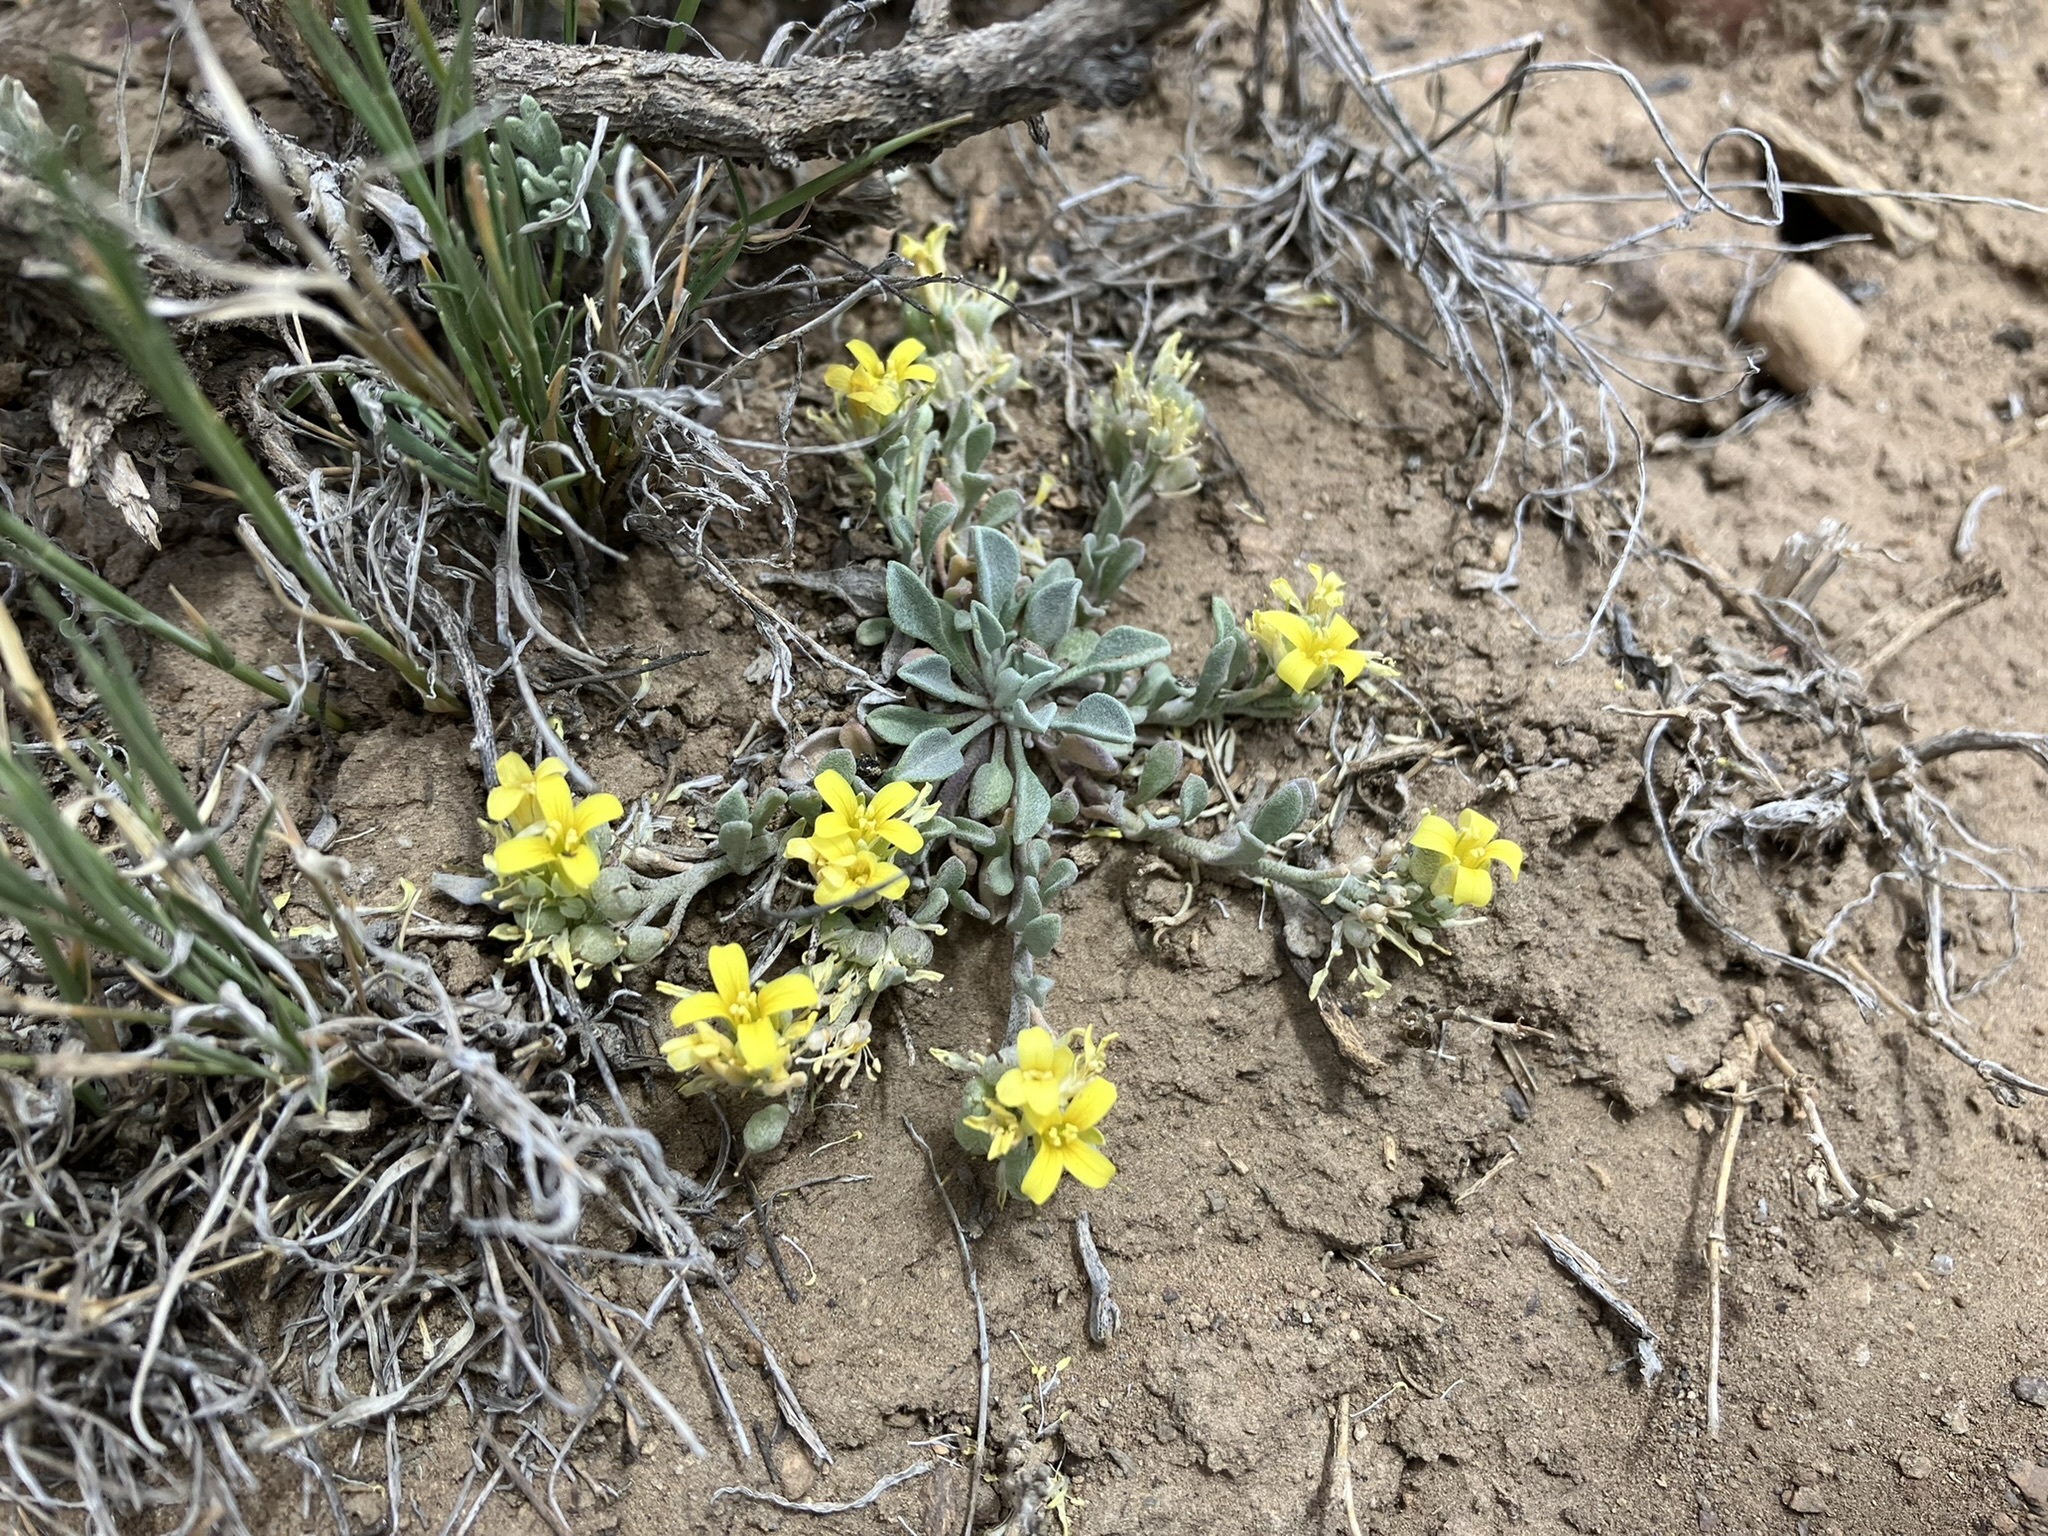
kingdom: Plantae
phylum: Tracheophyta
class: Magnoliopsida
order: Brassicales
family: Brassicaceae
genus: Physaria
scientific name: Physaria kingii
